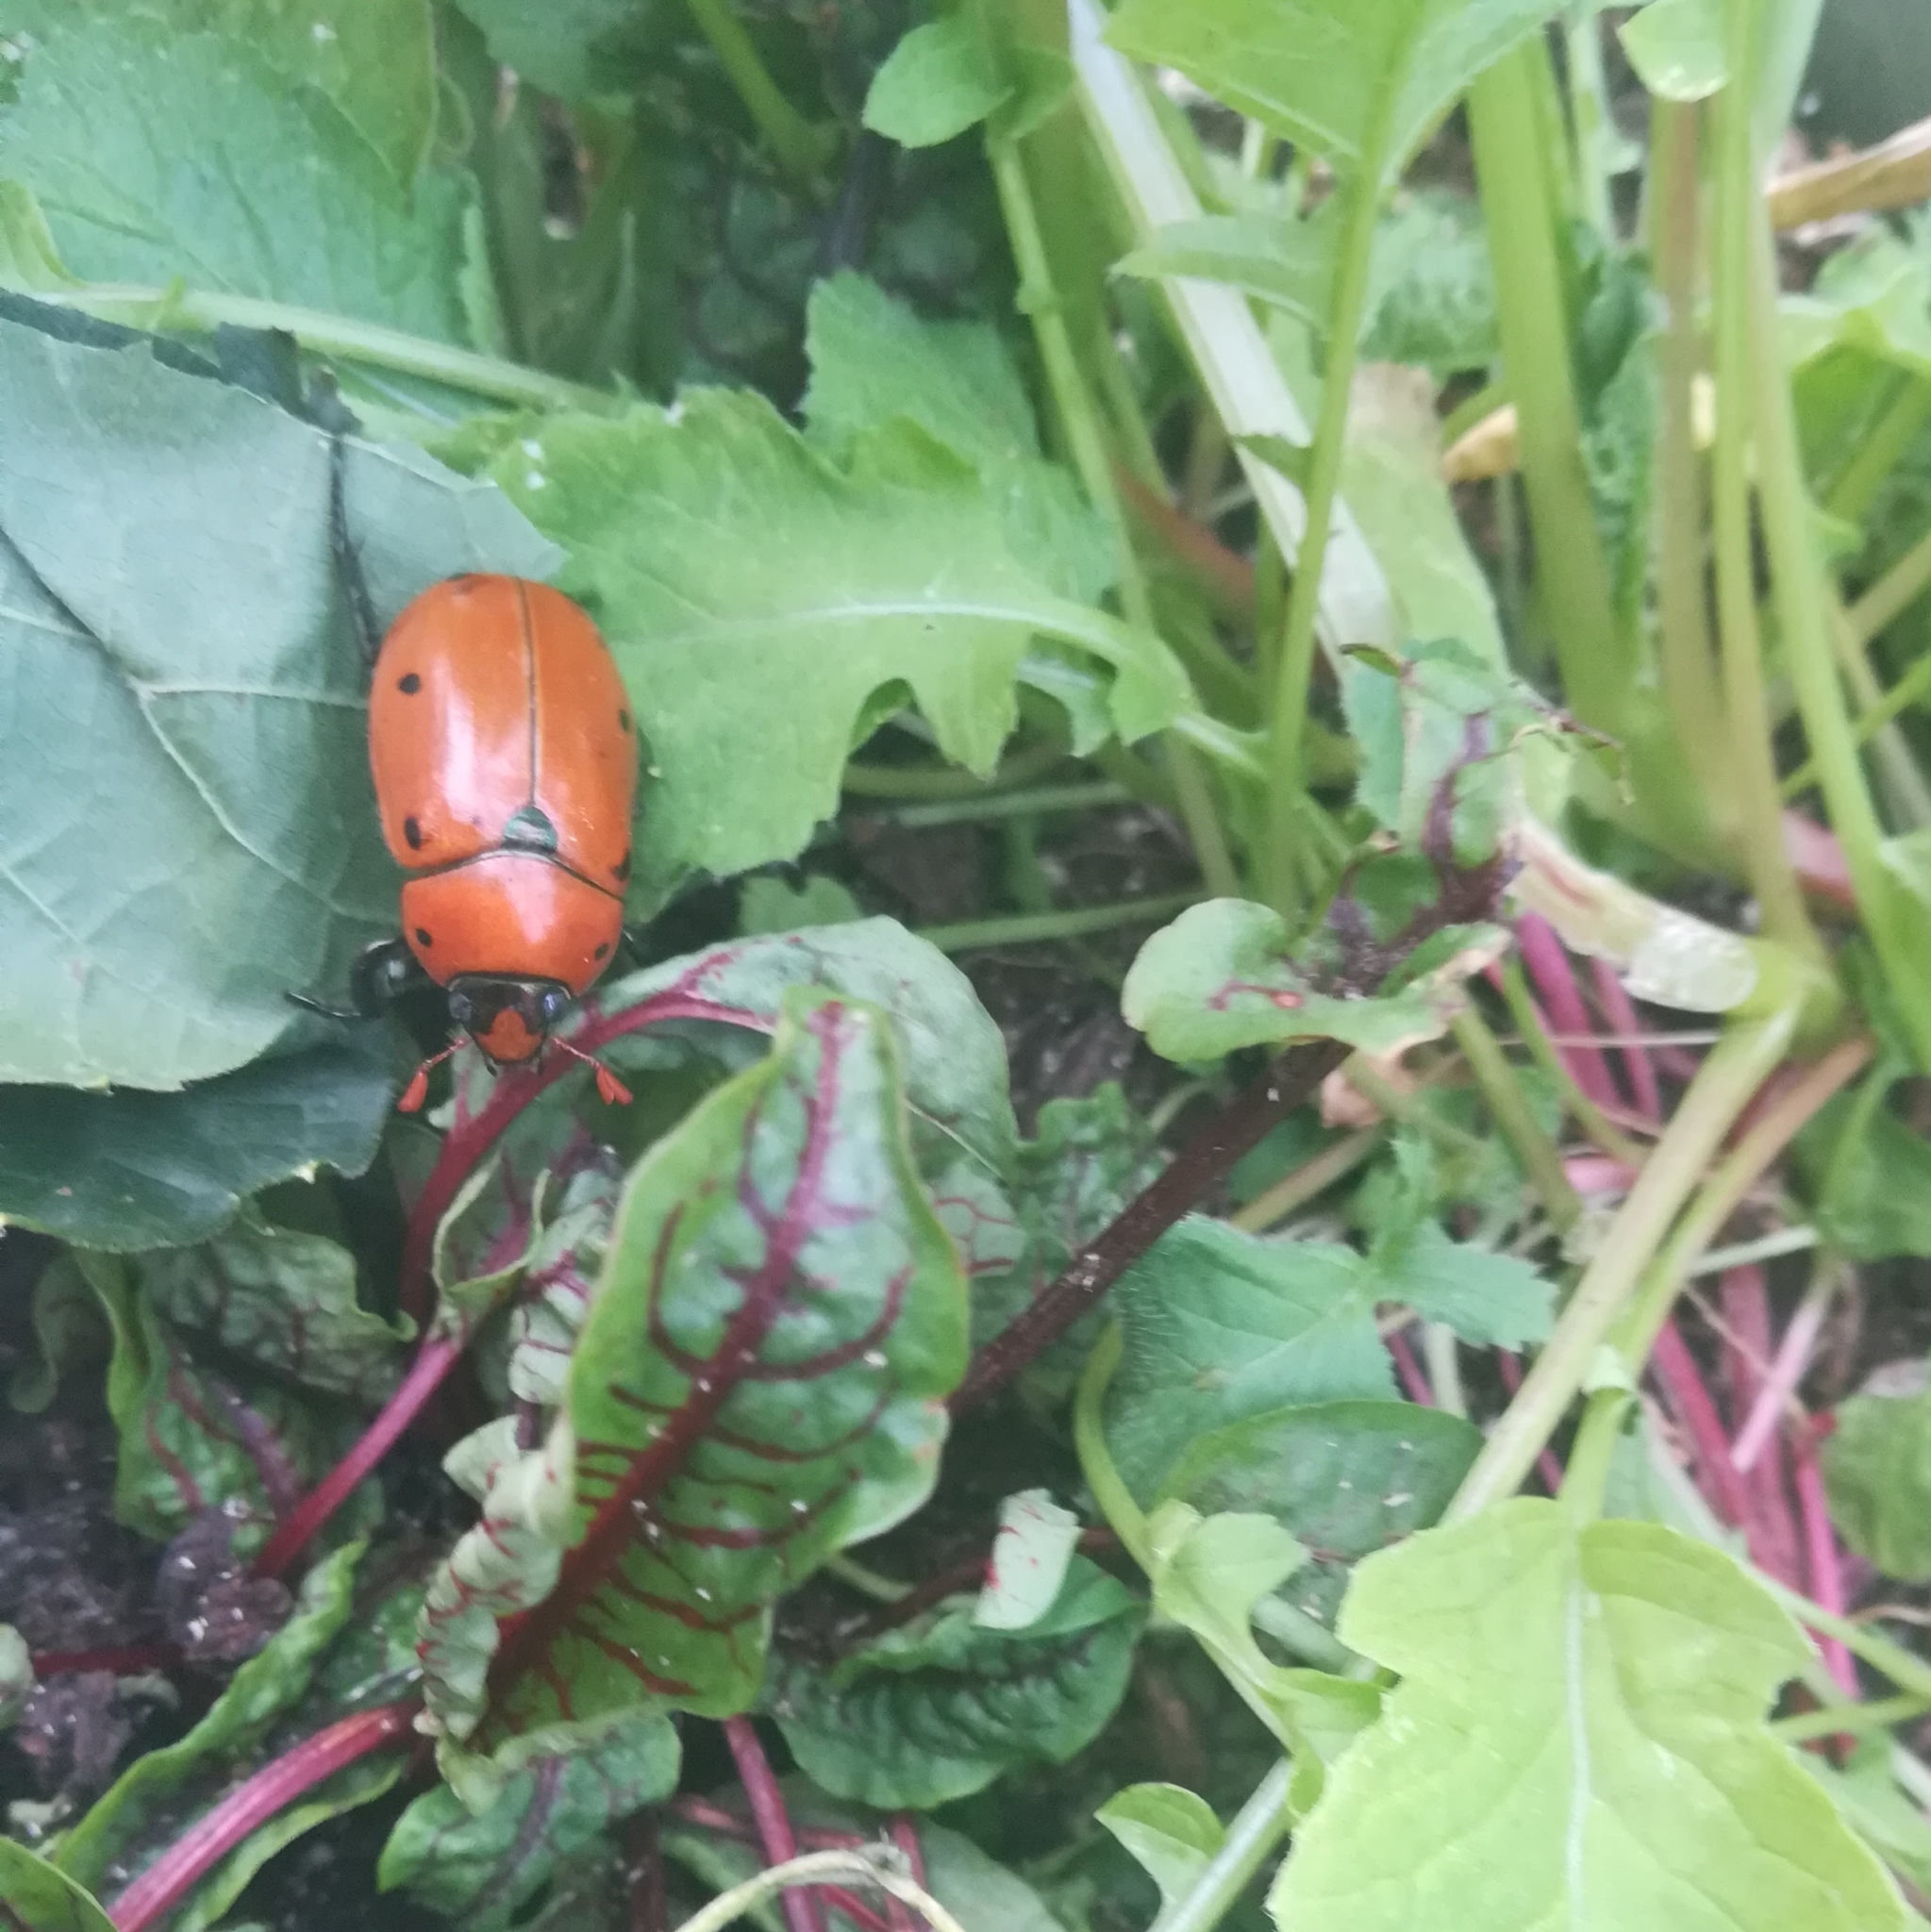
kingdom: Animalia
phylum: Arthropoda
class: Insecta
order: Coleoptera
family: Scarabaeidae
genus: Pelidnota
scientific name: Pelidnota punctata
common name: Grapevine beetle
